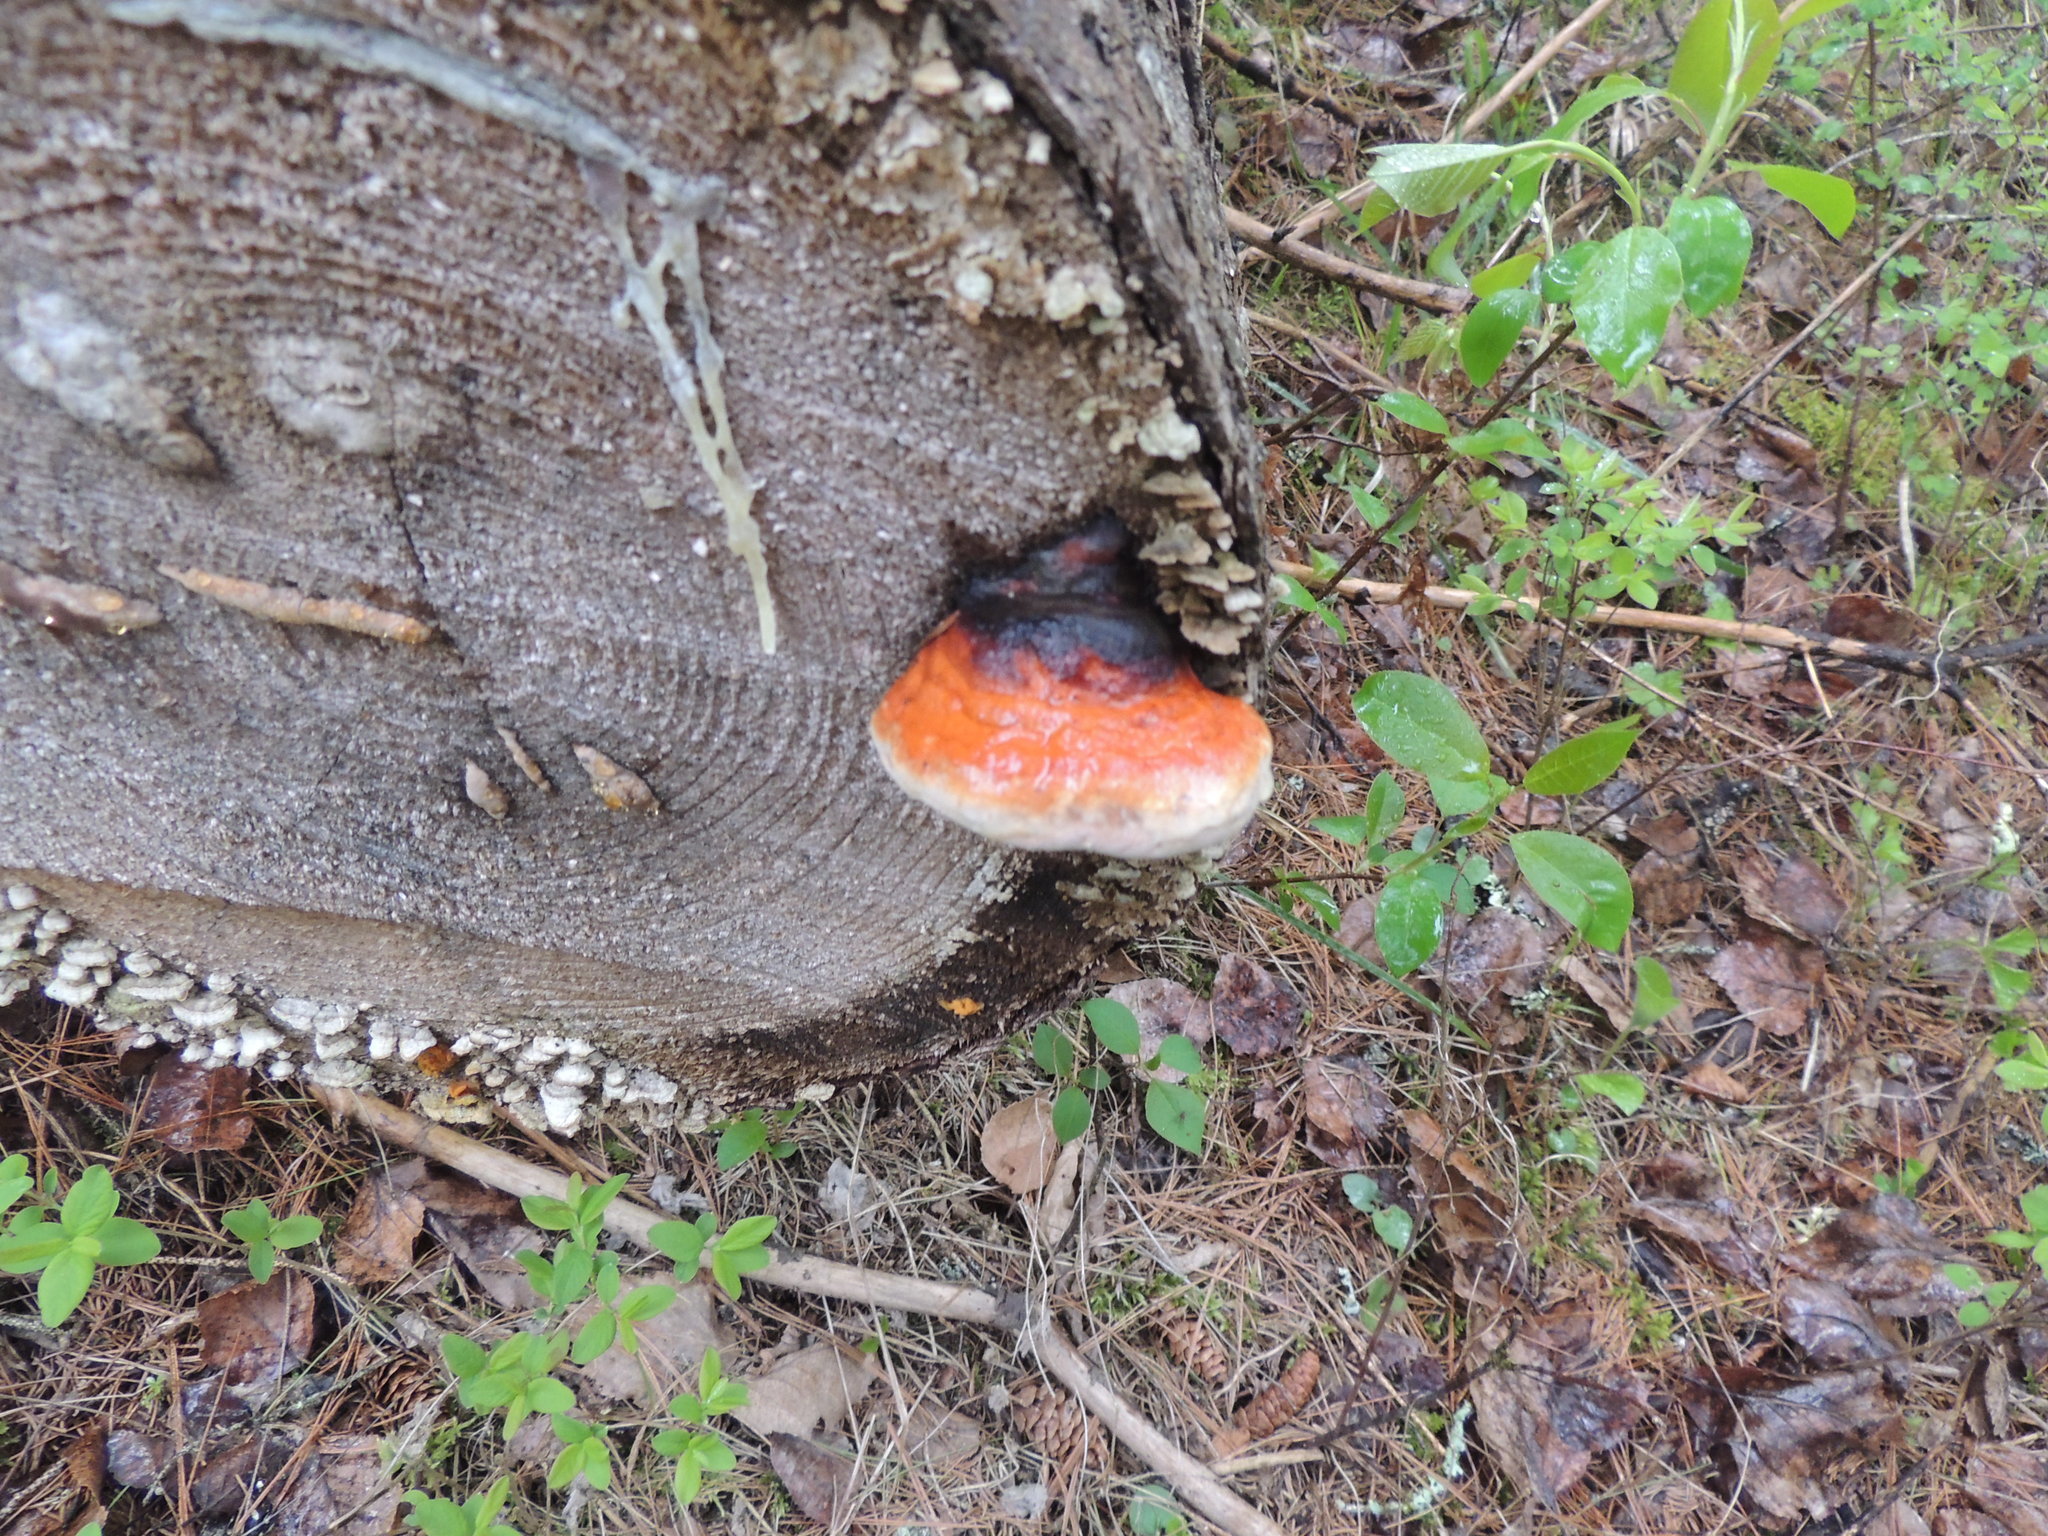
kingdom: Fungi
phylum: Basidiomycota
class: Agaricomycetes
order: Polyporales
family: Fomitopsidaceae
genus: Fomitopsis
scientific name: Fomitopsis mounceae
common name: Northern red belt
